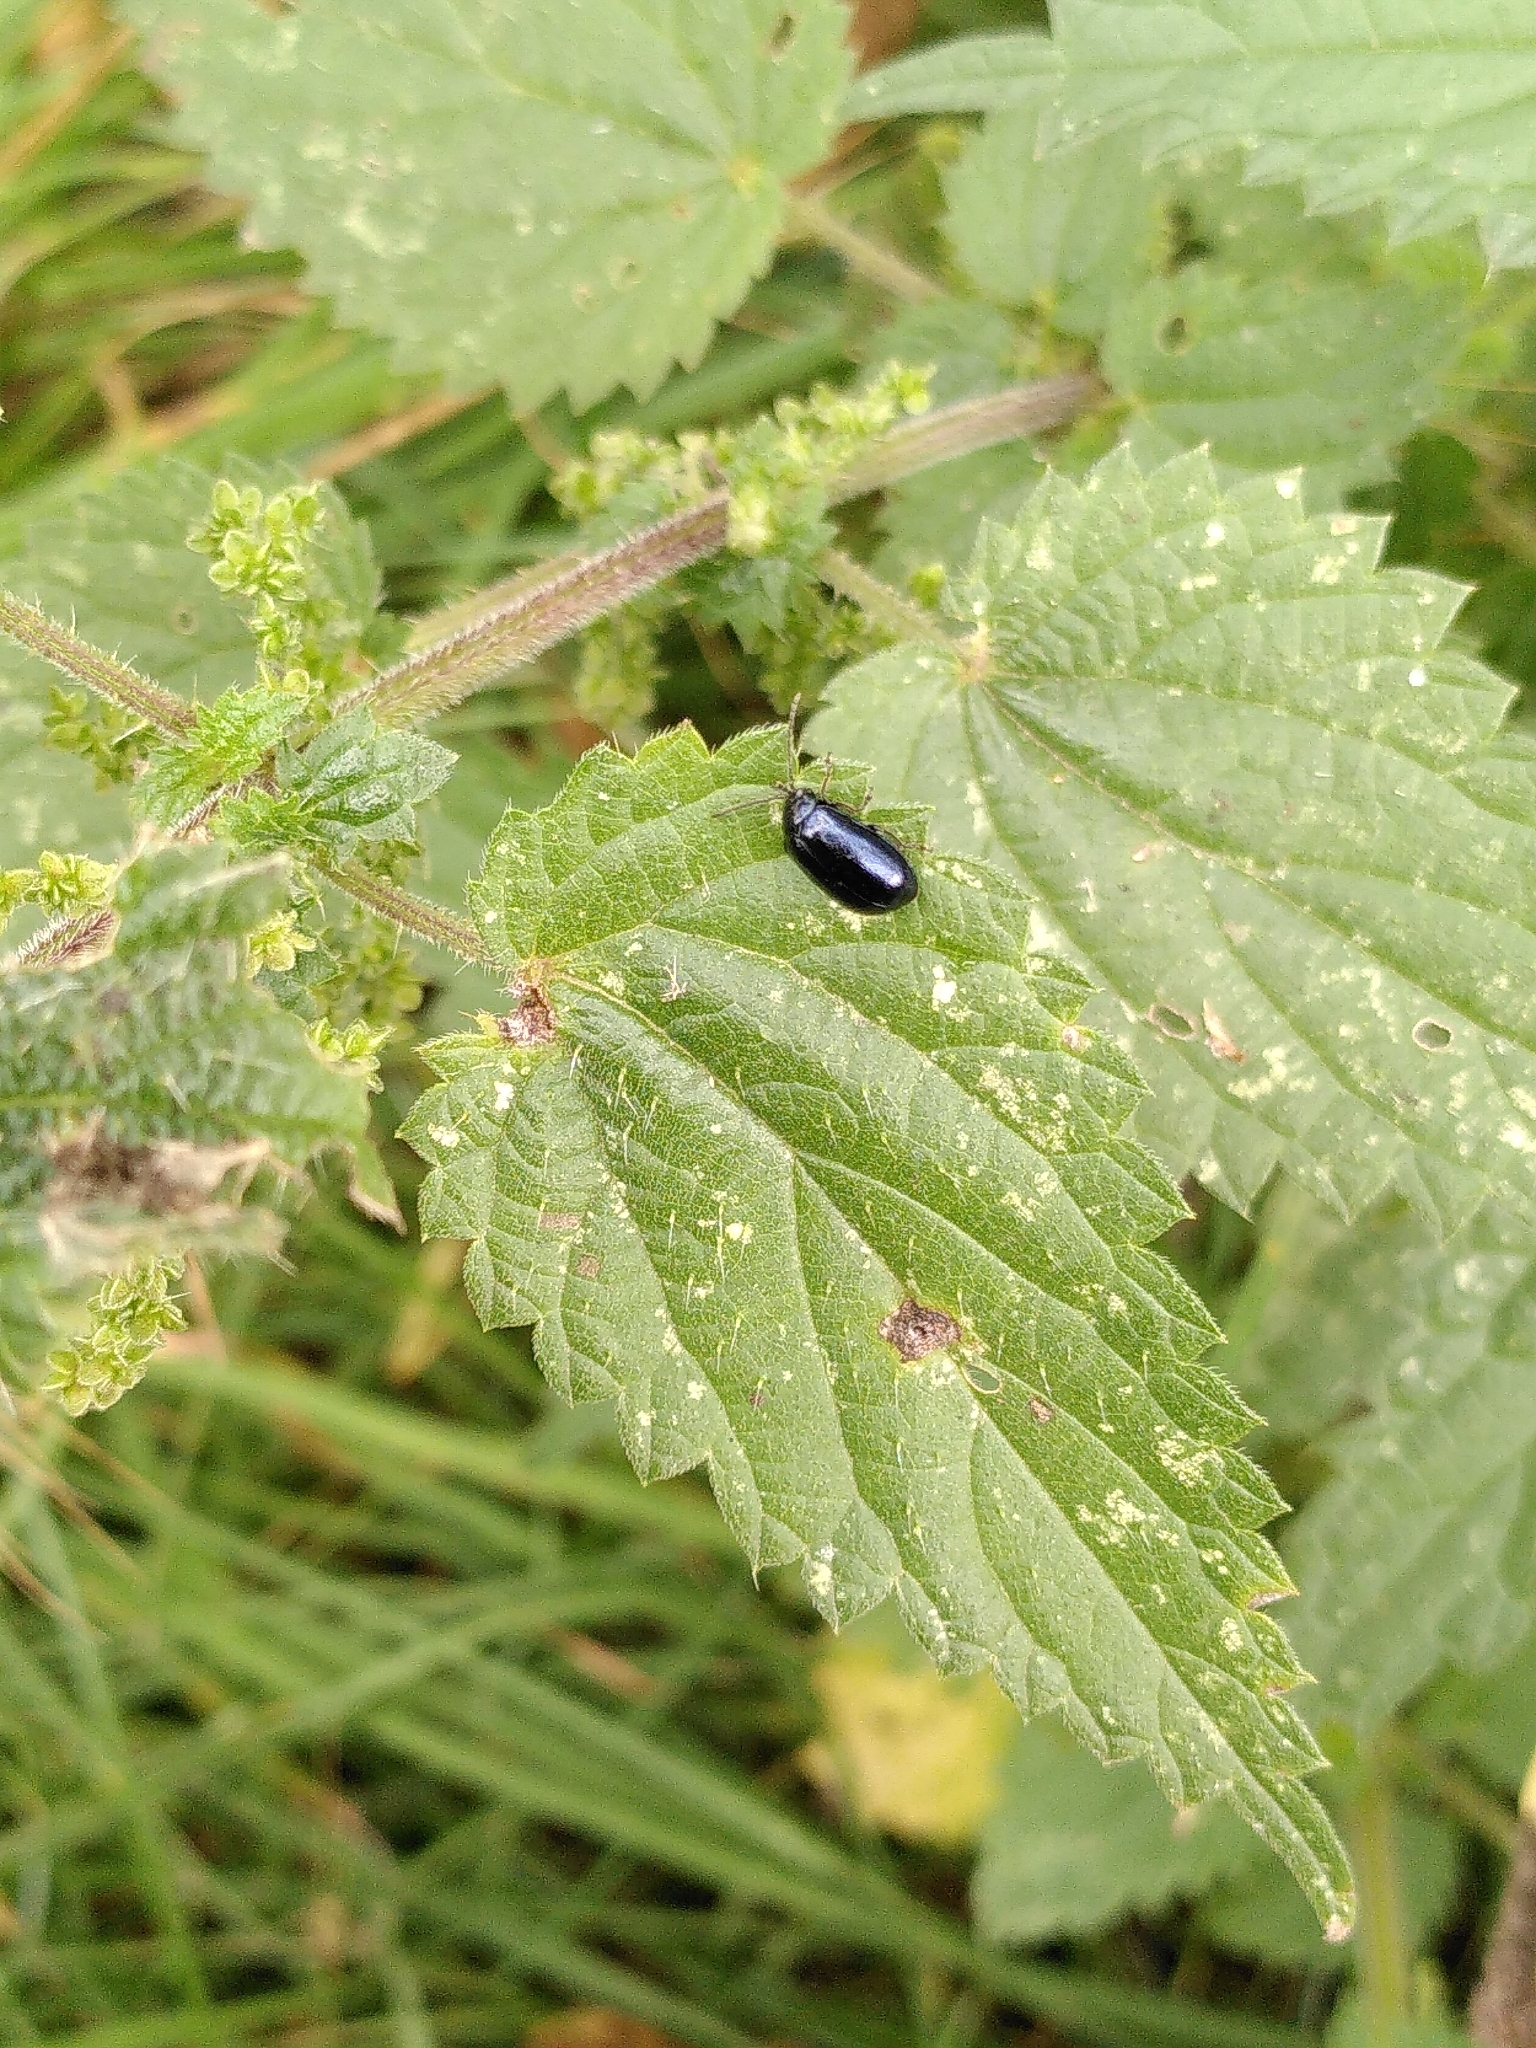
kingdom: Animalia
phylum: Arthropoda
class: Insecta
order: Coleoptera
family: Chrysomelidae
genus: Agelastica
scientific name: Agelastica alni
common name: Alder leaf beetle
